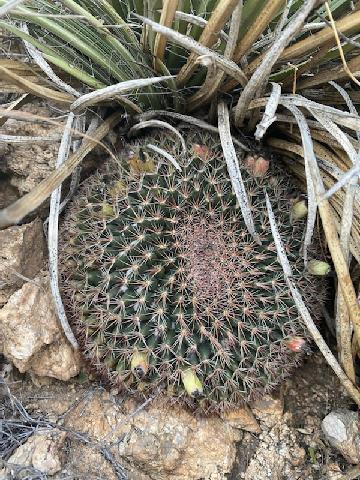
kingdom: Plantae
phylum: Tracheophyta
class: Magnoliopsida
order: Caryophyllales
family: Cactaceae
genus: Mammillaria
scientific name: Mammillaria heyderi
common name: Little nipple cactus
